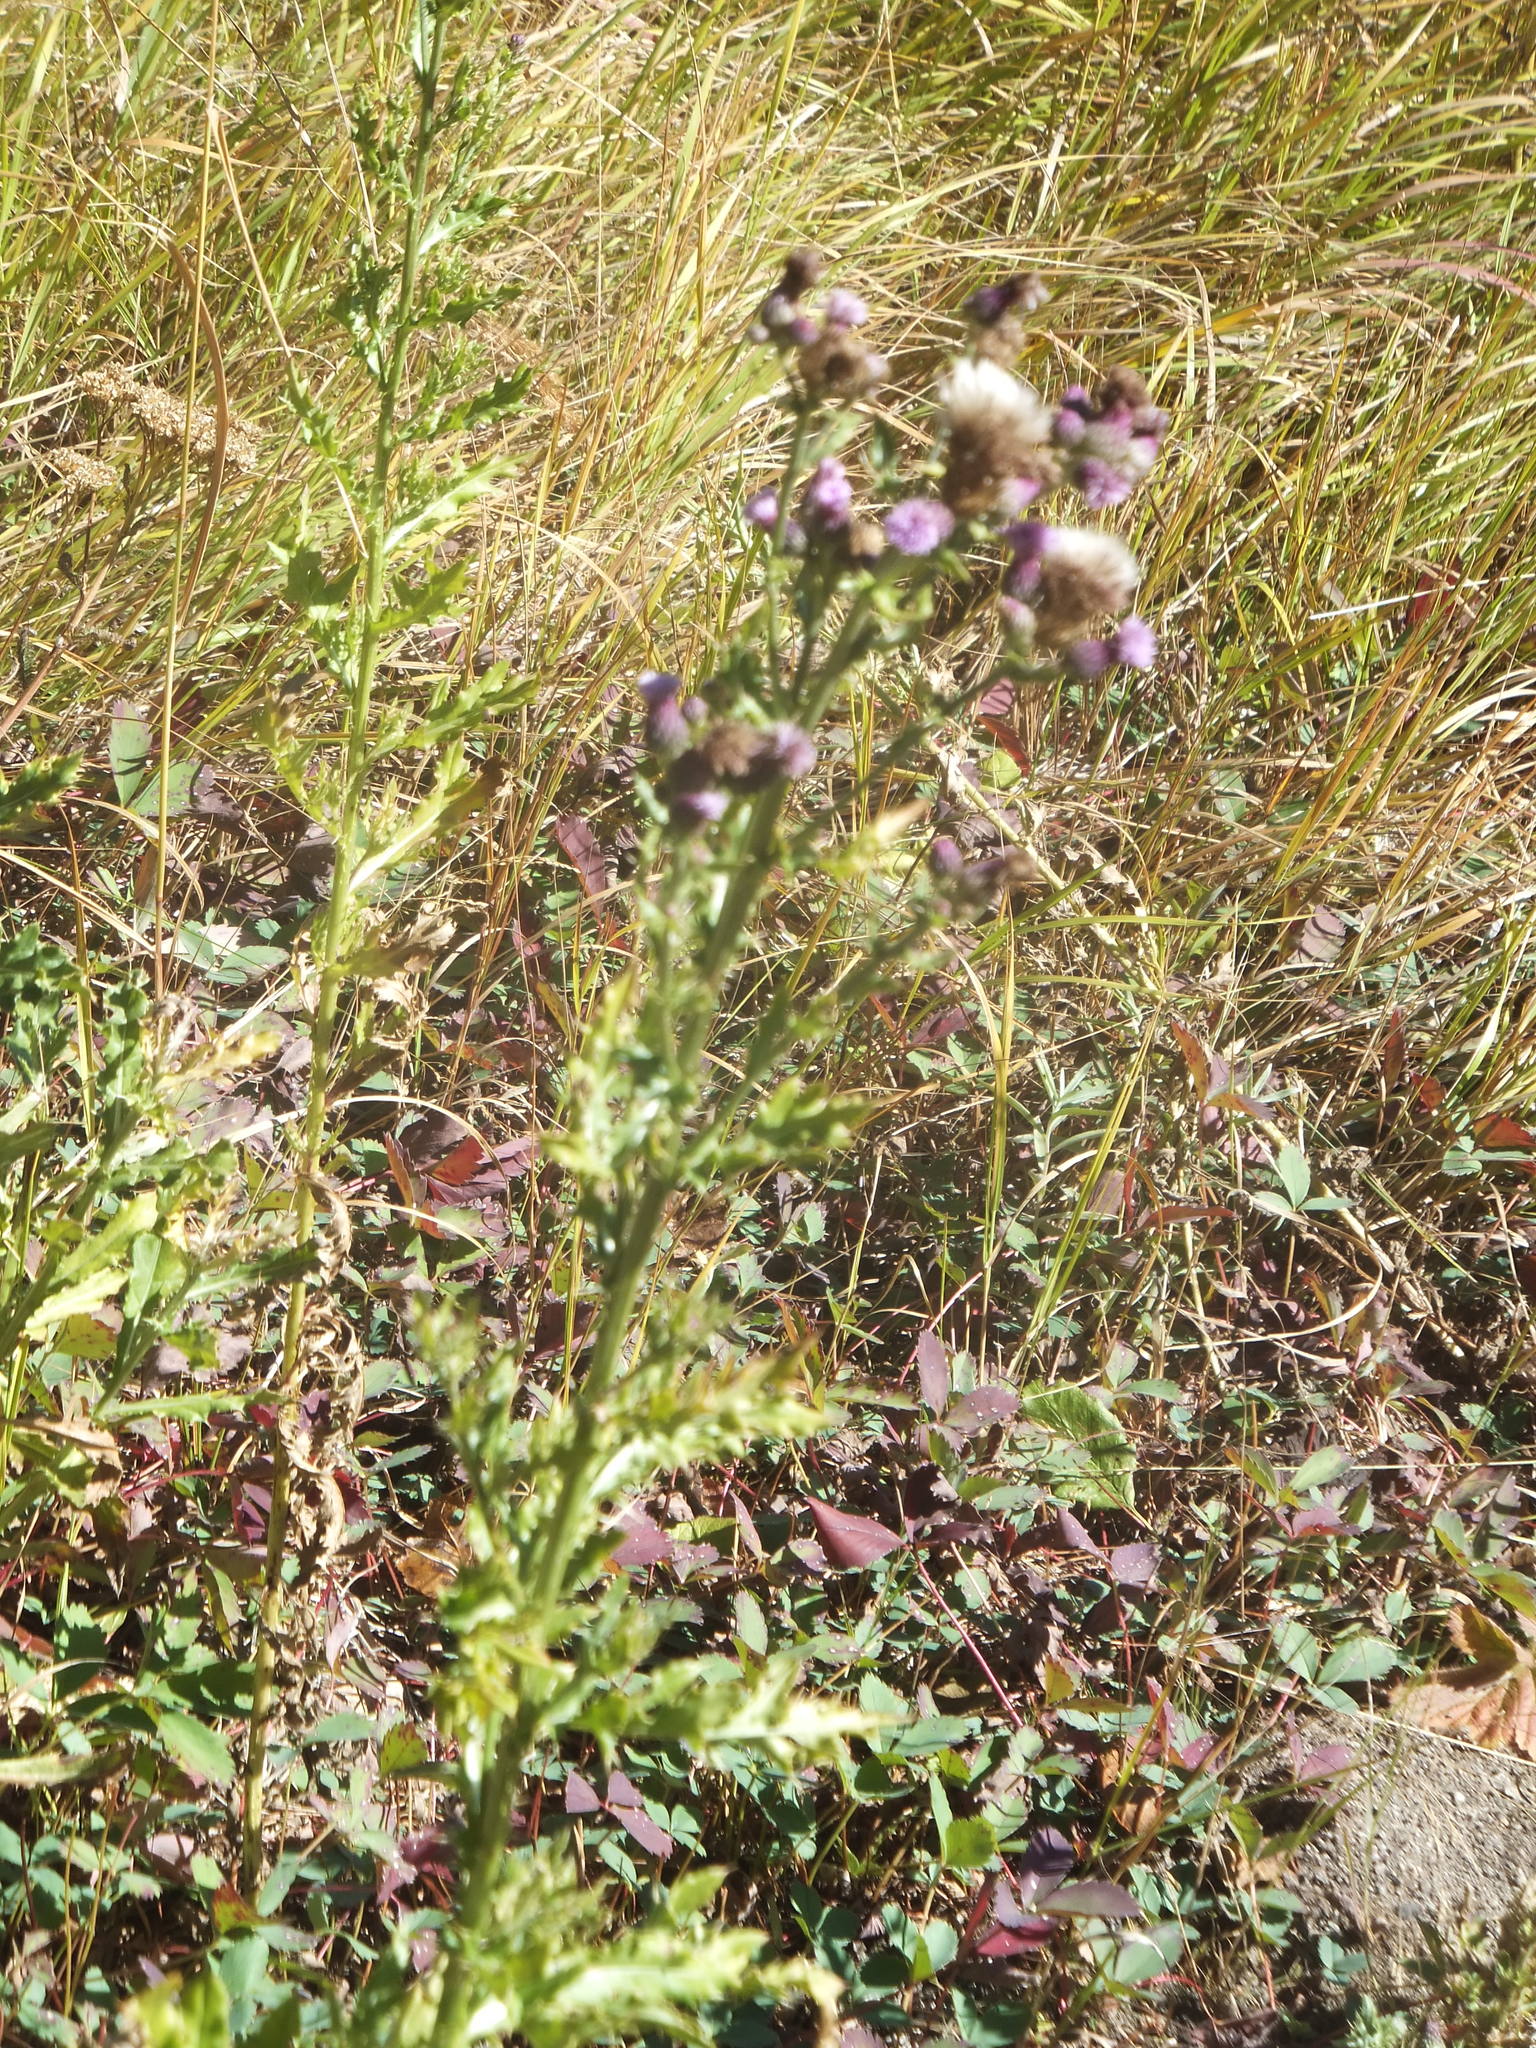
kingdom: Plantae
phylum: Tracheophyta
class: Magnoliopsida
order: Asterales
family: Asteraceae
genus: Cirsium
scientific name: Cirsium arvense
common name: Creeping thistle
